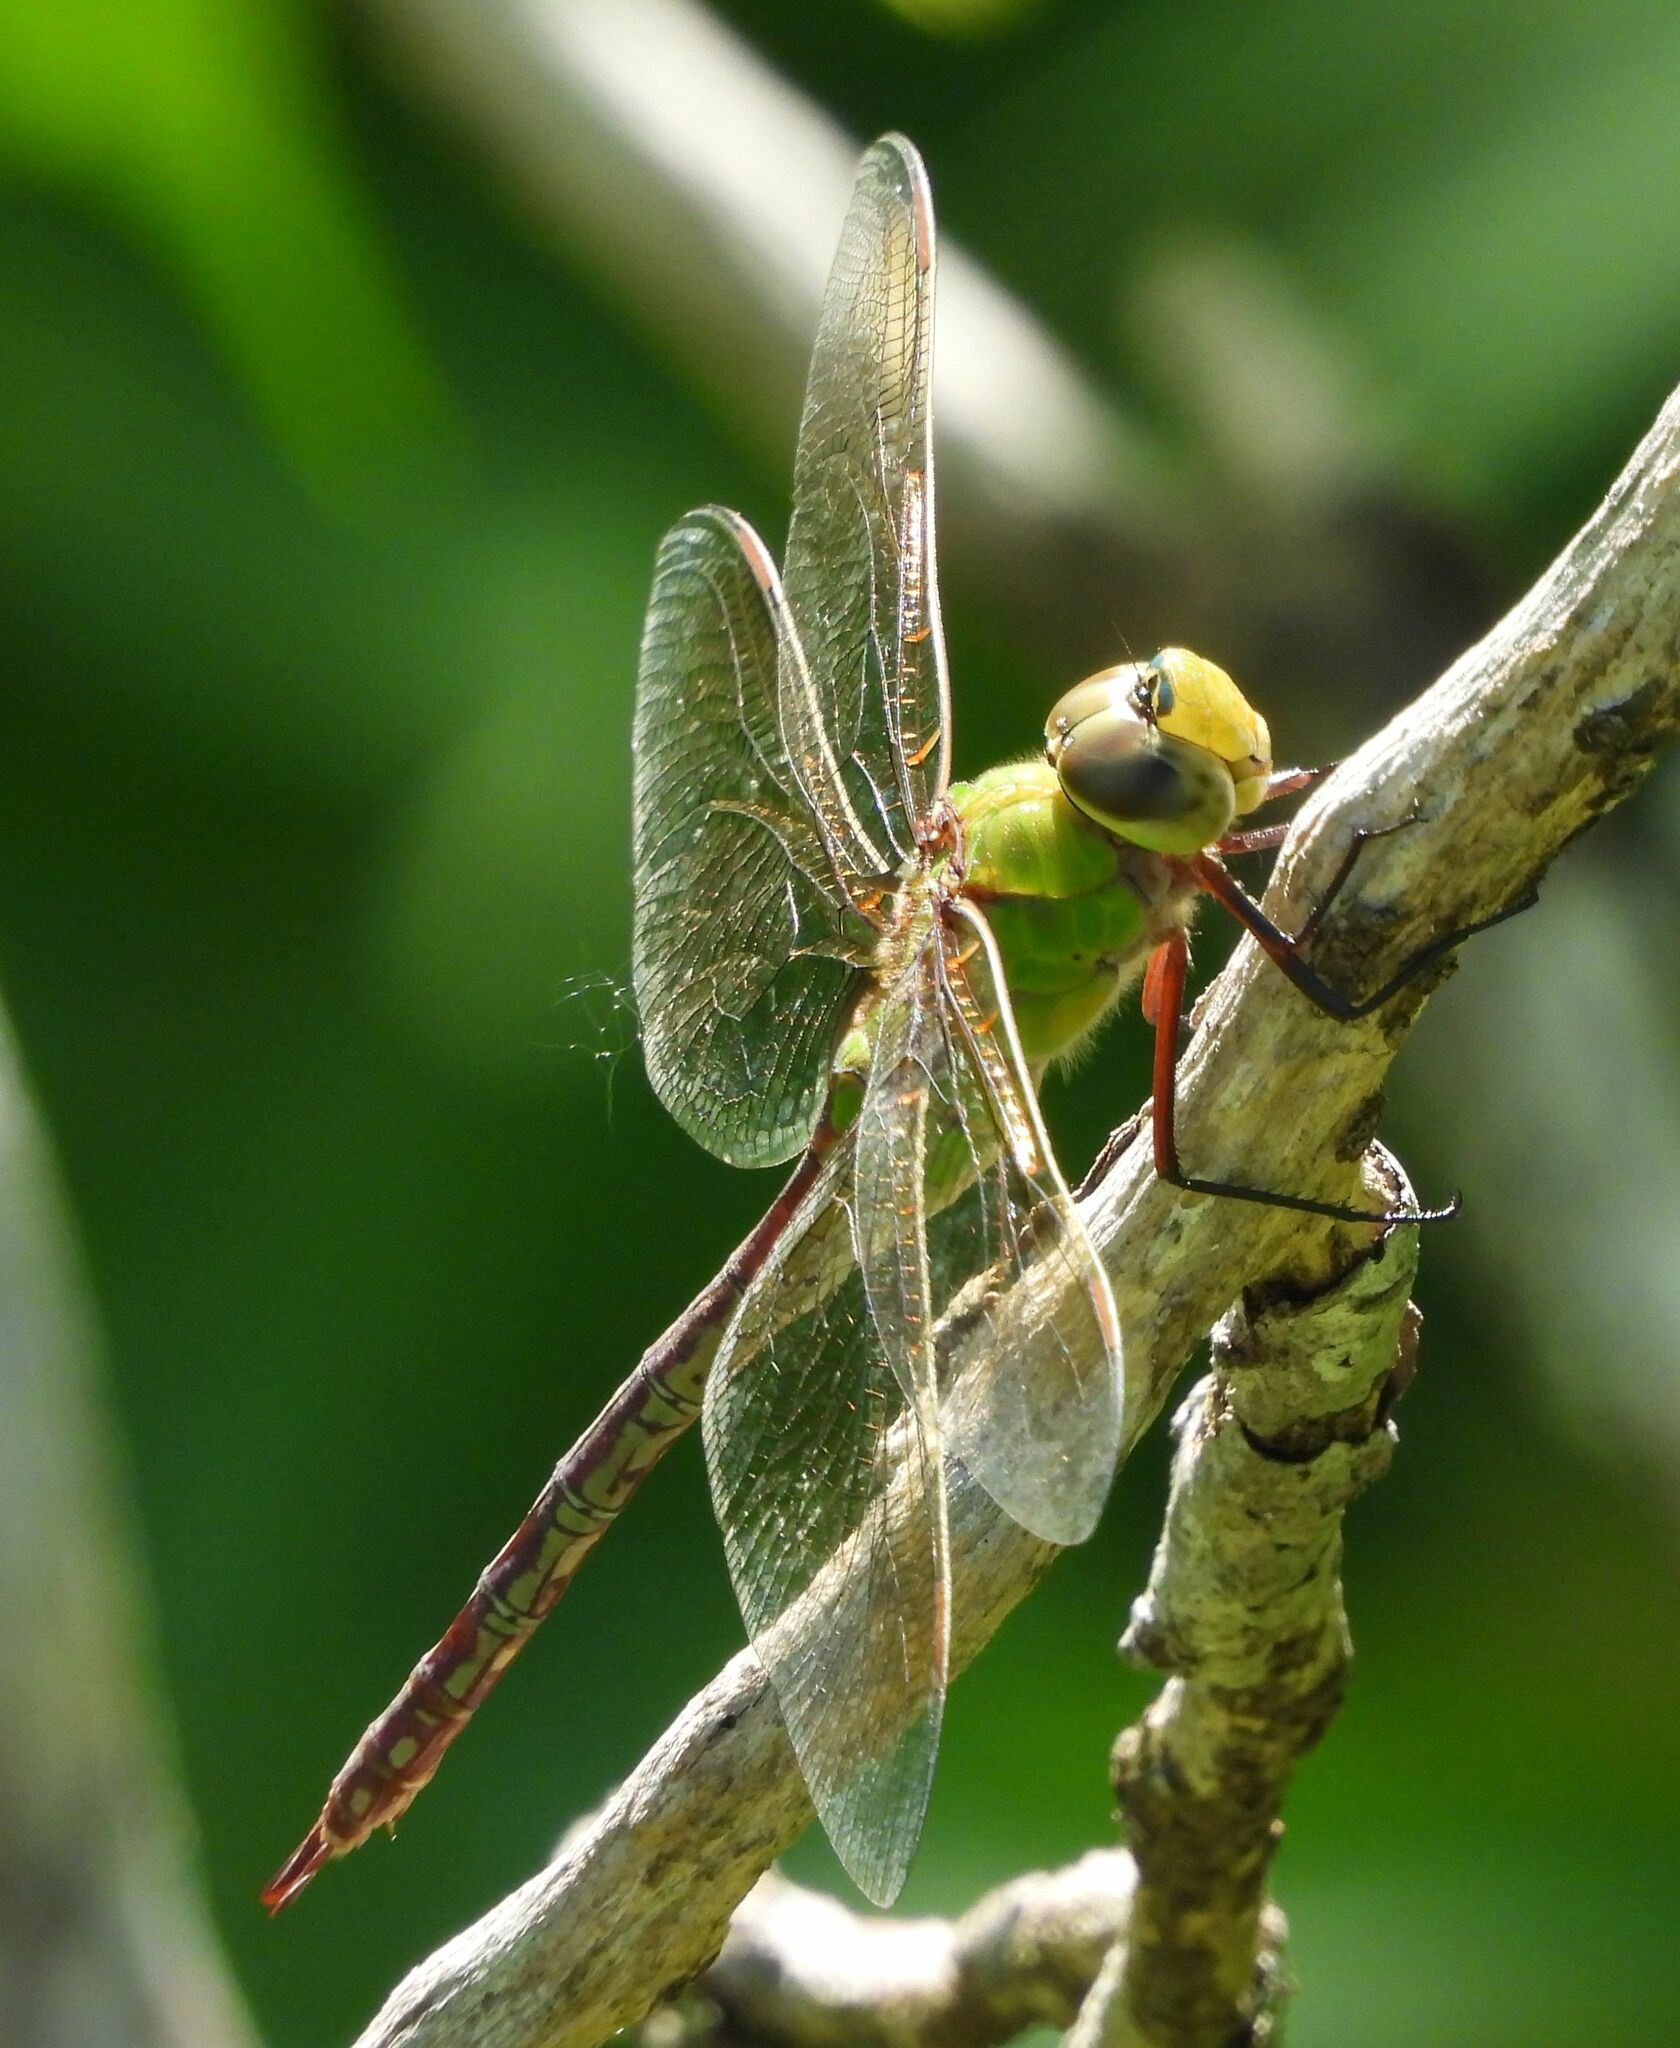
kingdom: Animalia
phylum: Arthropoda
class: Insecta
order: Odonata
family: Aeshnidae
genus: Anax
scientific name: Anax junius
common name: Common green darner
